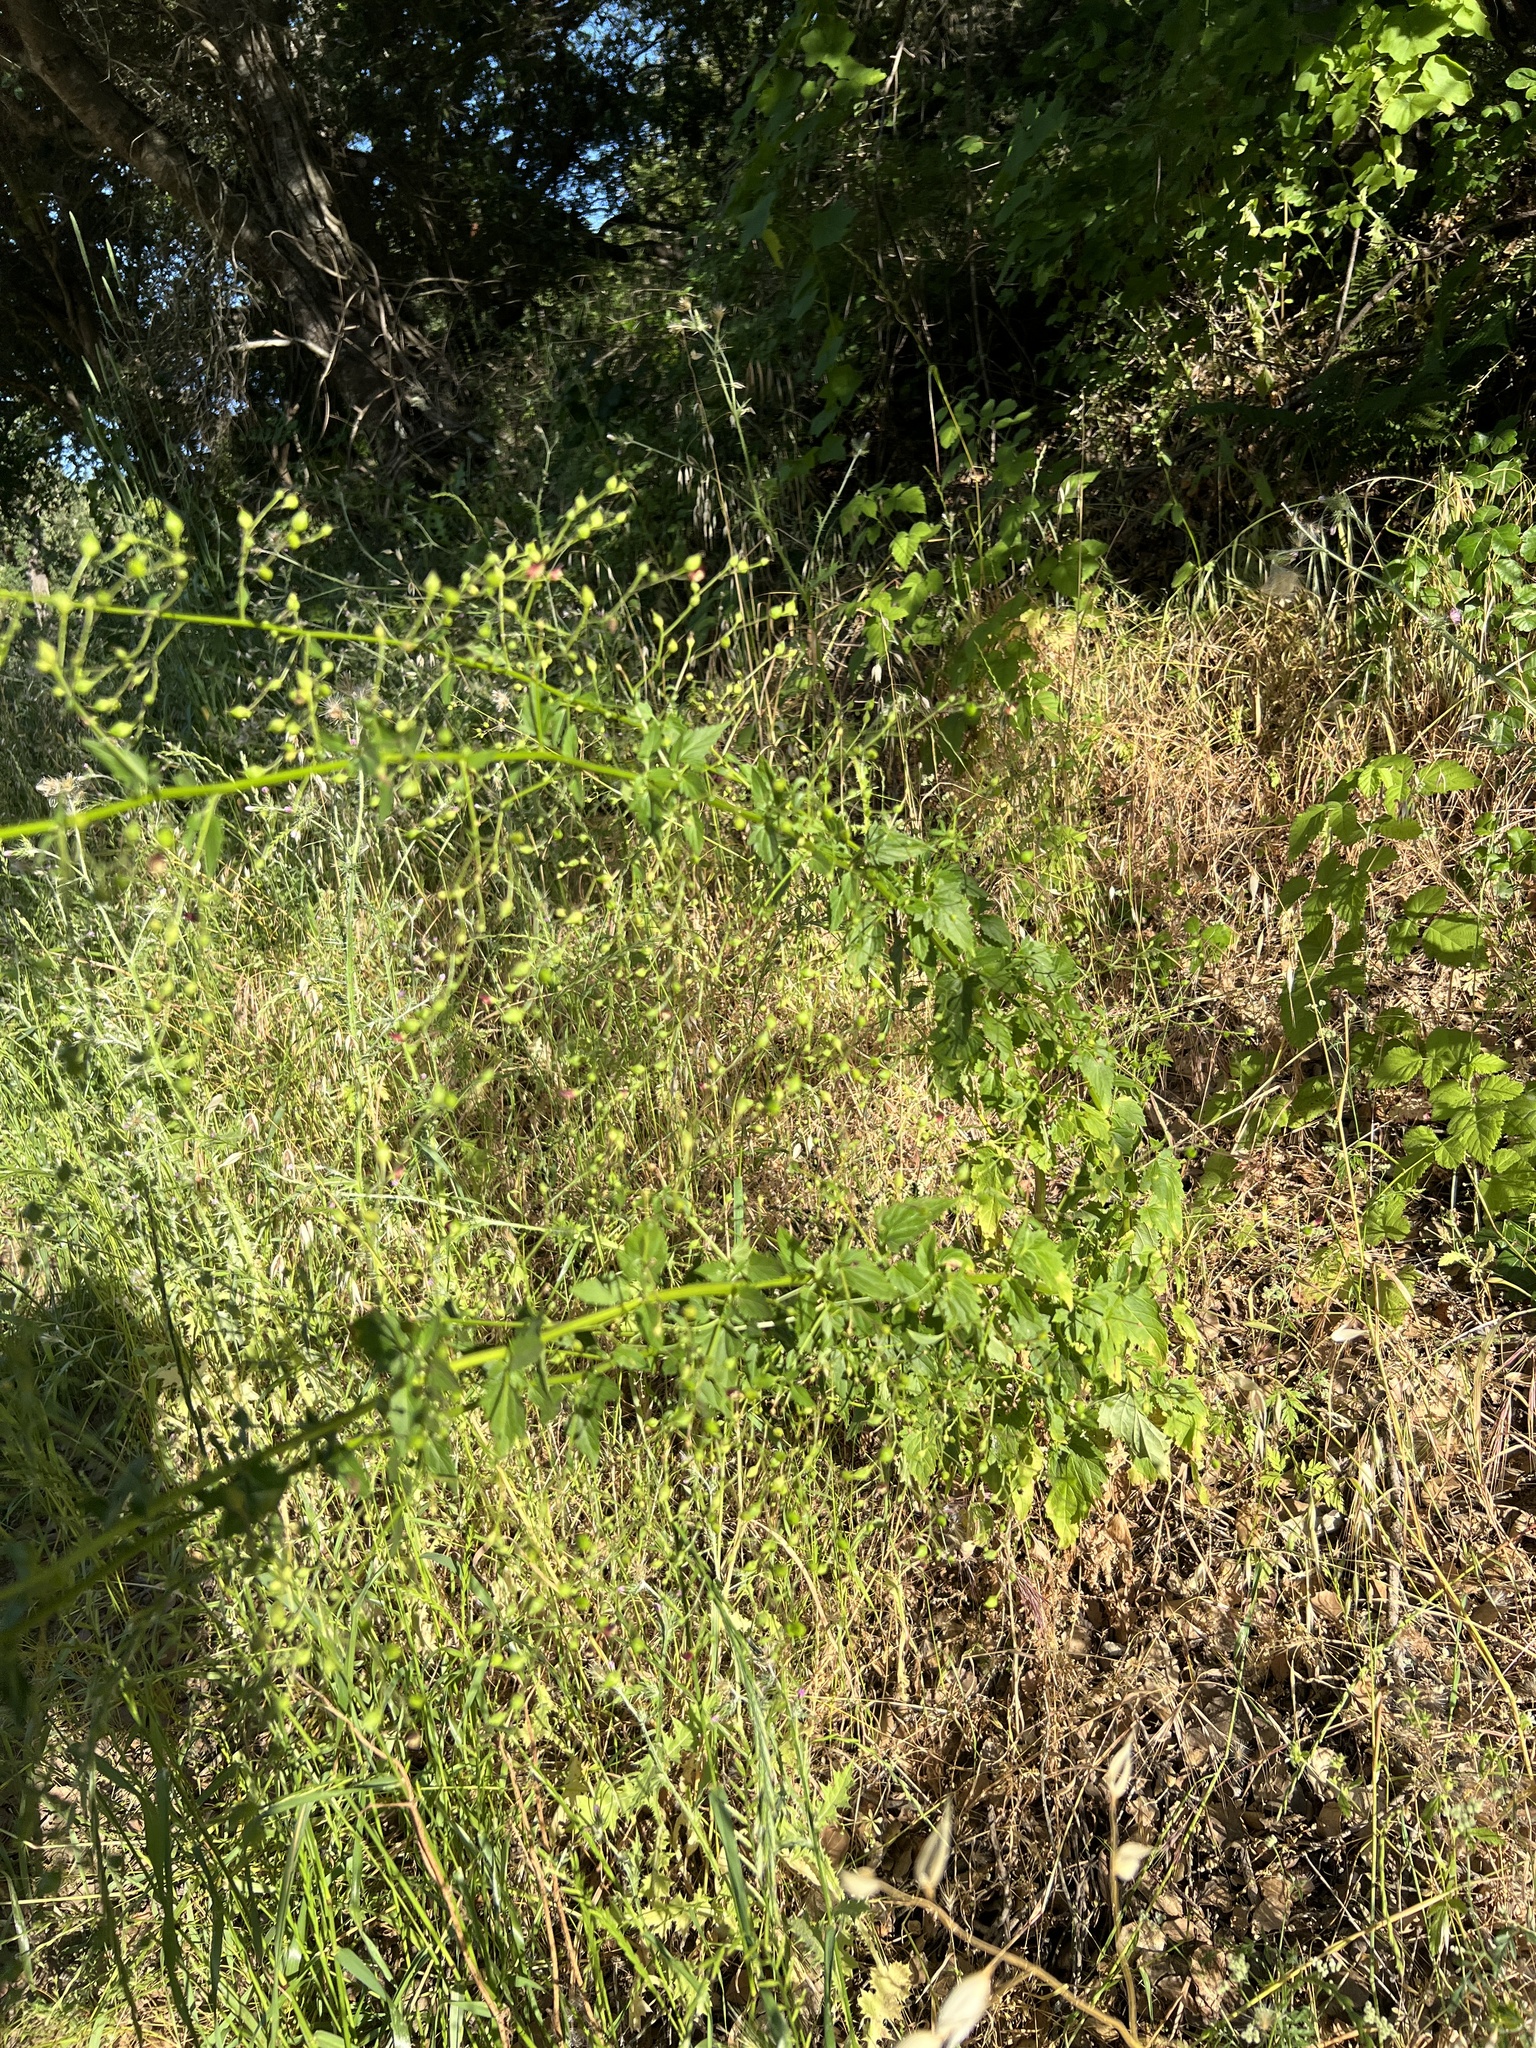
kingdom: Plantae
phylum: Tracheophyta
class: Magnoliopsida
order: Lamiales
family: Scrophulariaceae
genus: Scrophularia
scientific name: Scrophularia californica
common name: California figwort
